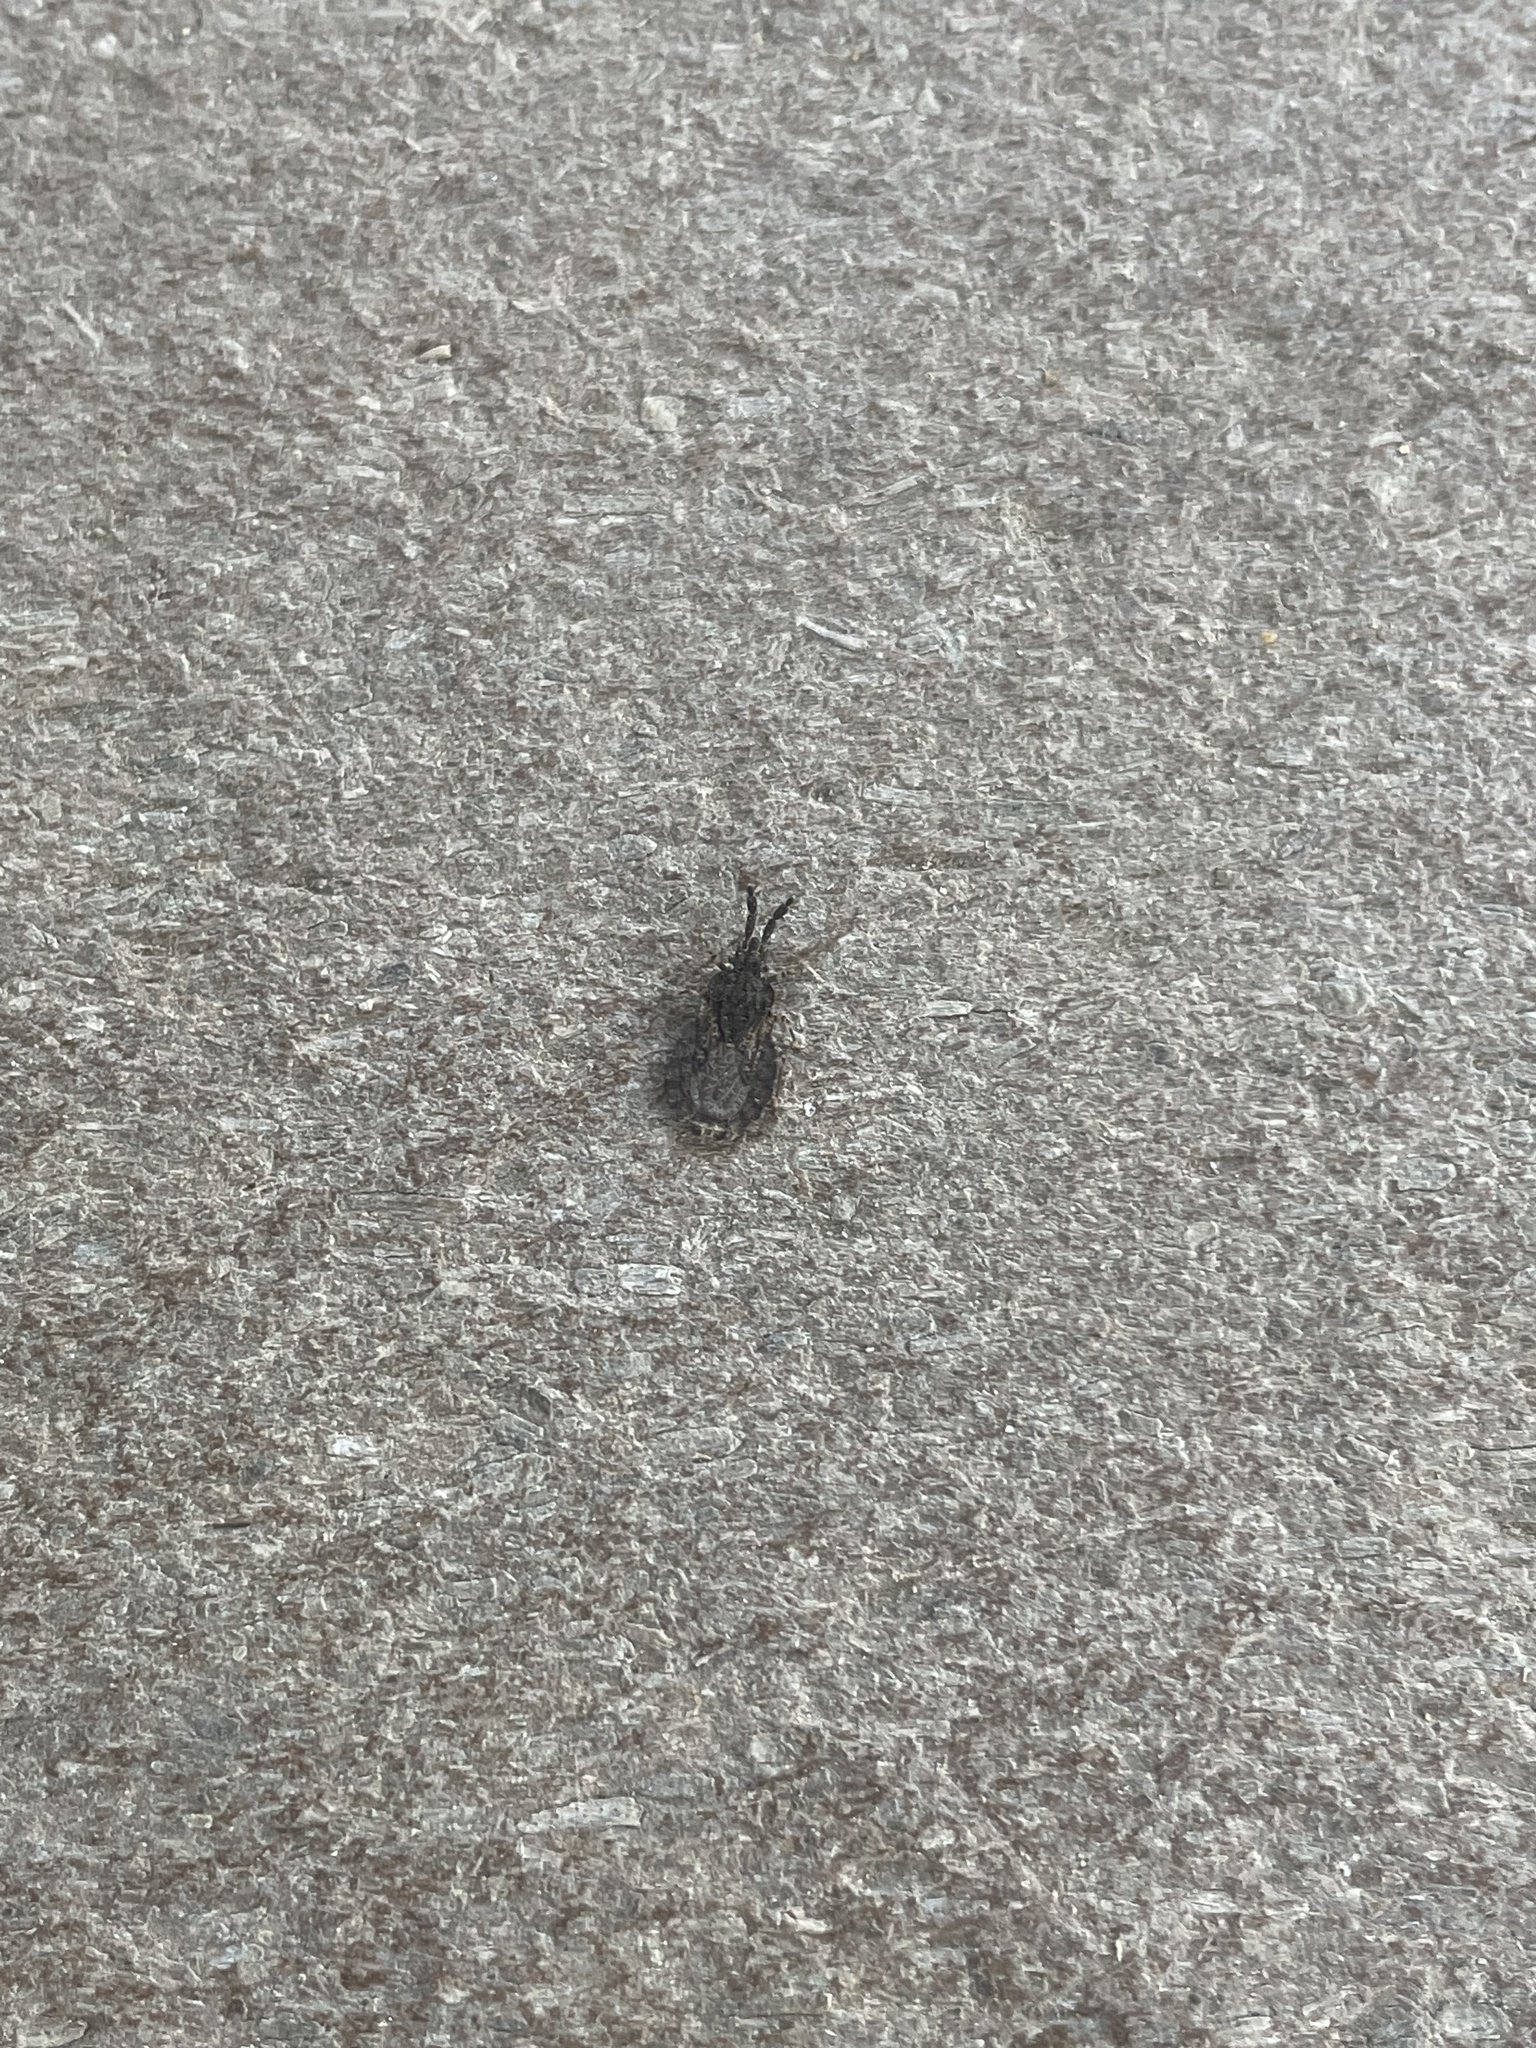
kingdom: Animalia
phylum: Arthropoda
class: Insecta
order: Hemiptera
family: Aradidae
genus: Aradus
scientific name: Aradus robustus
